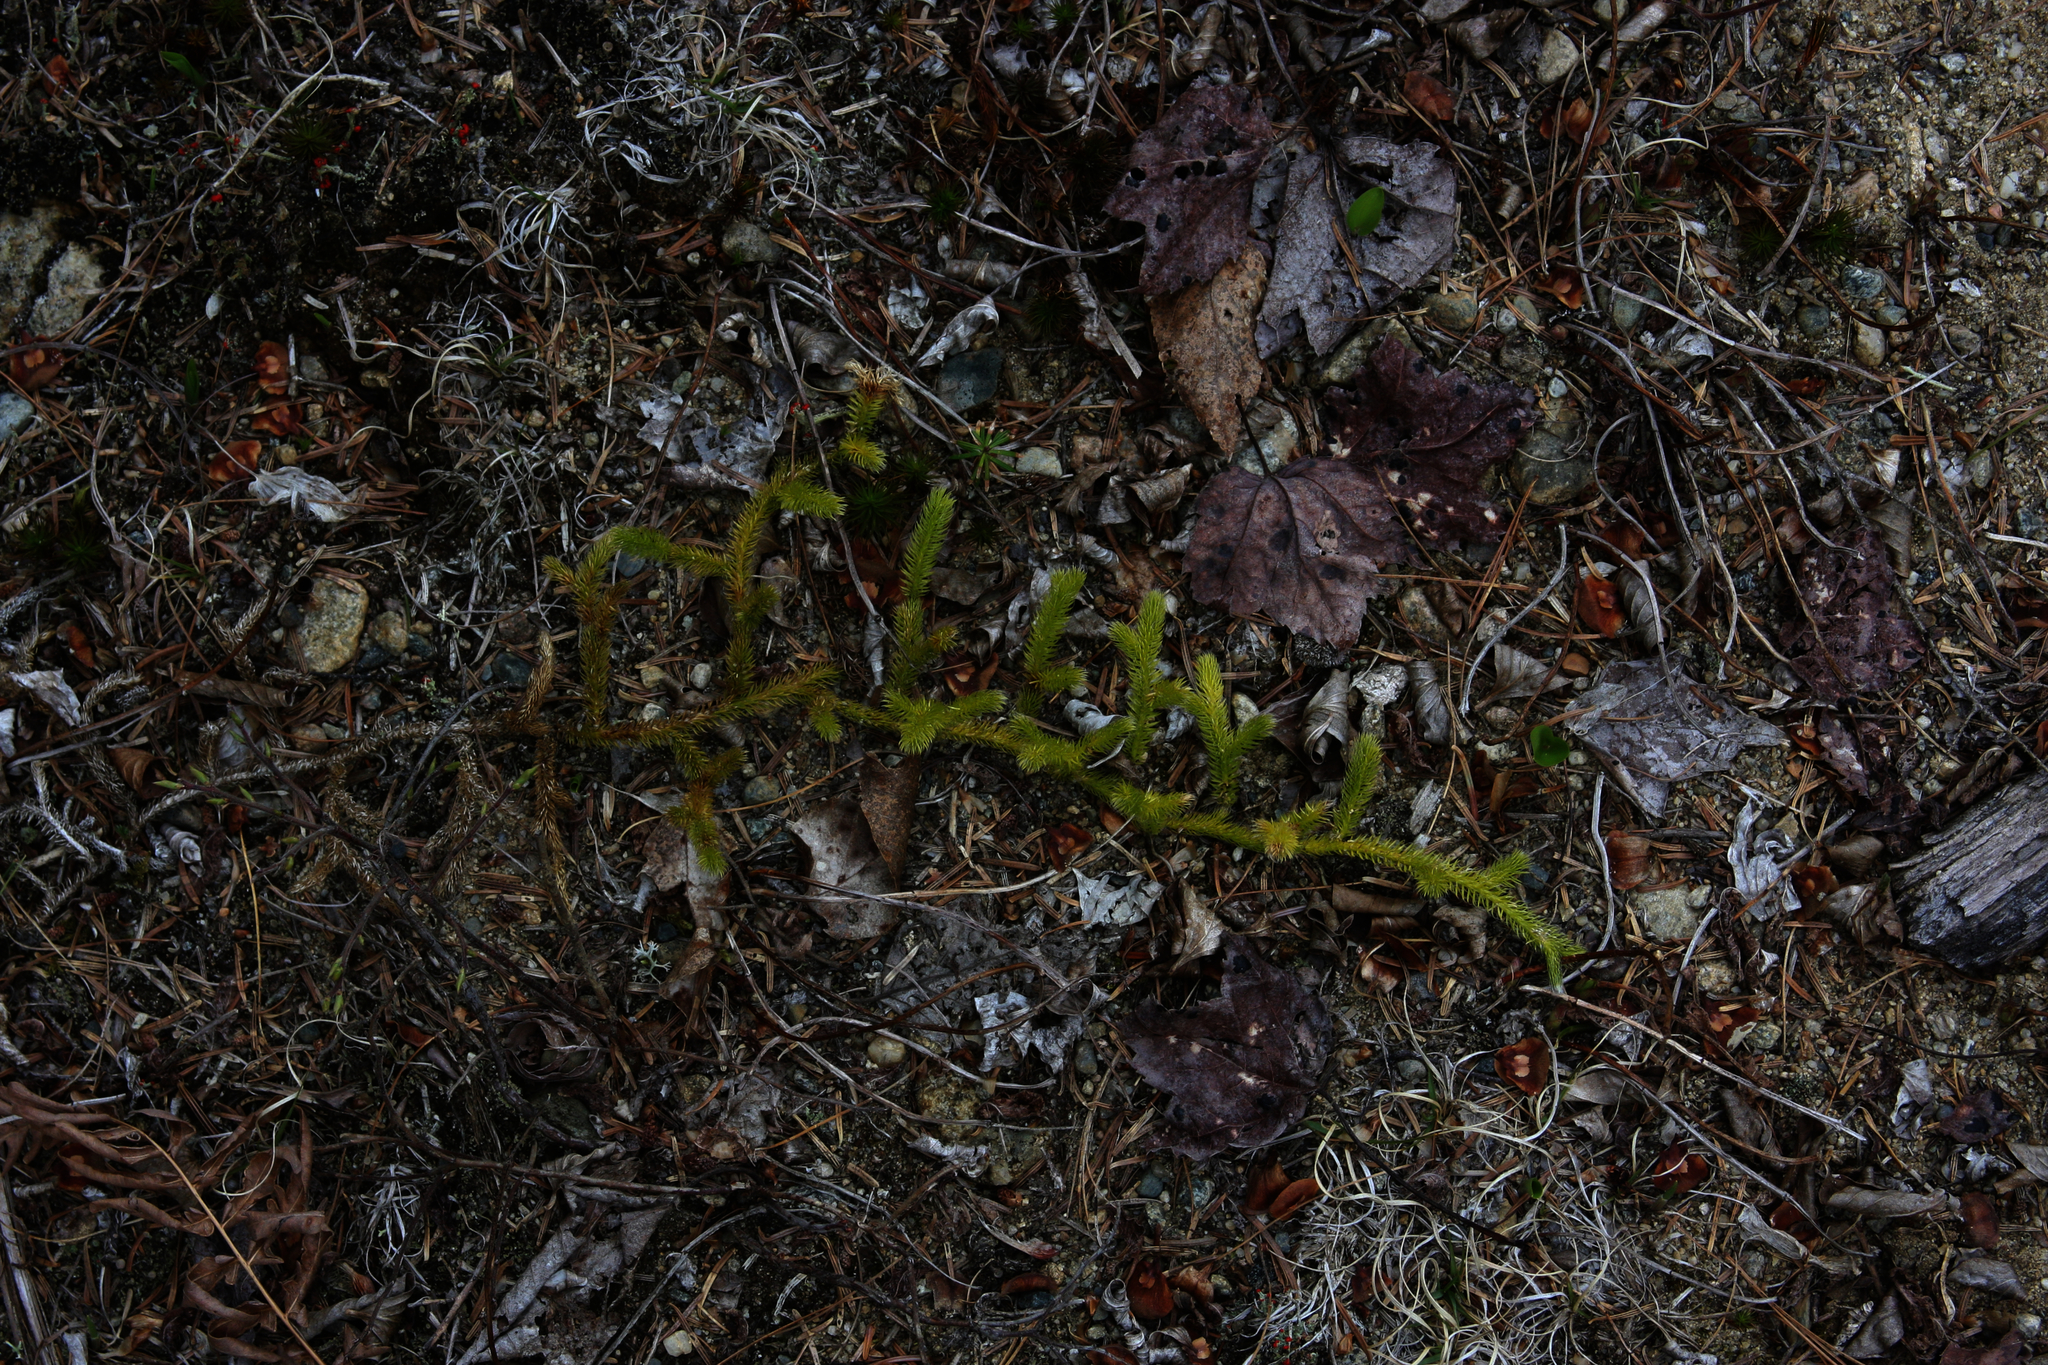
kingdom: Plantae
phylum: Tracheophyta
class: Lycopodiopsida
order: Lycopodiales
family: Lycopodiaceae
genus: Lycopodium
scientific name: Lycopodium clavatum
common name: Stag's-horn clubmoss
